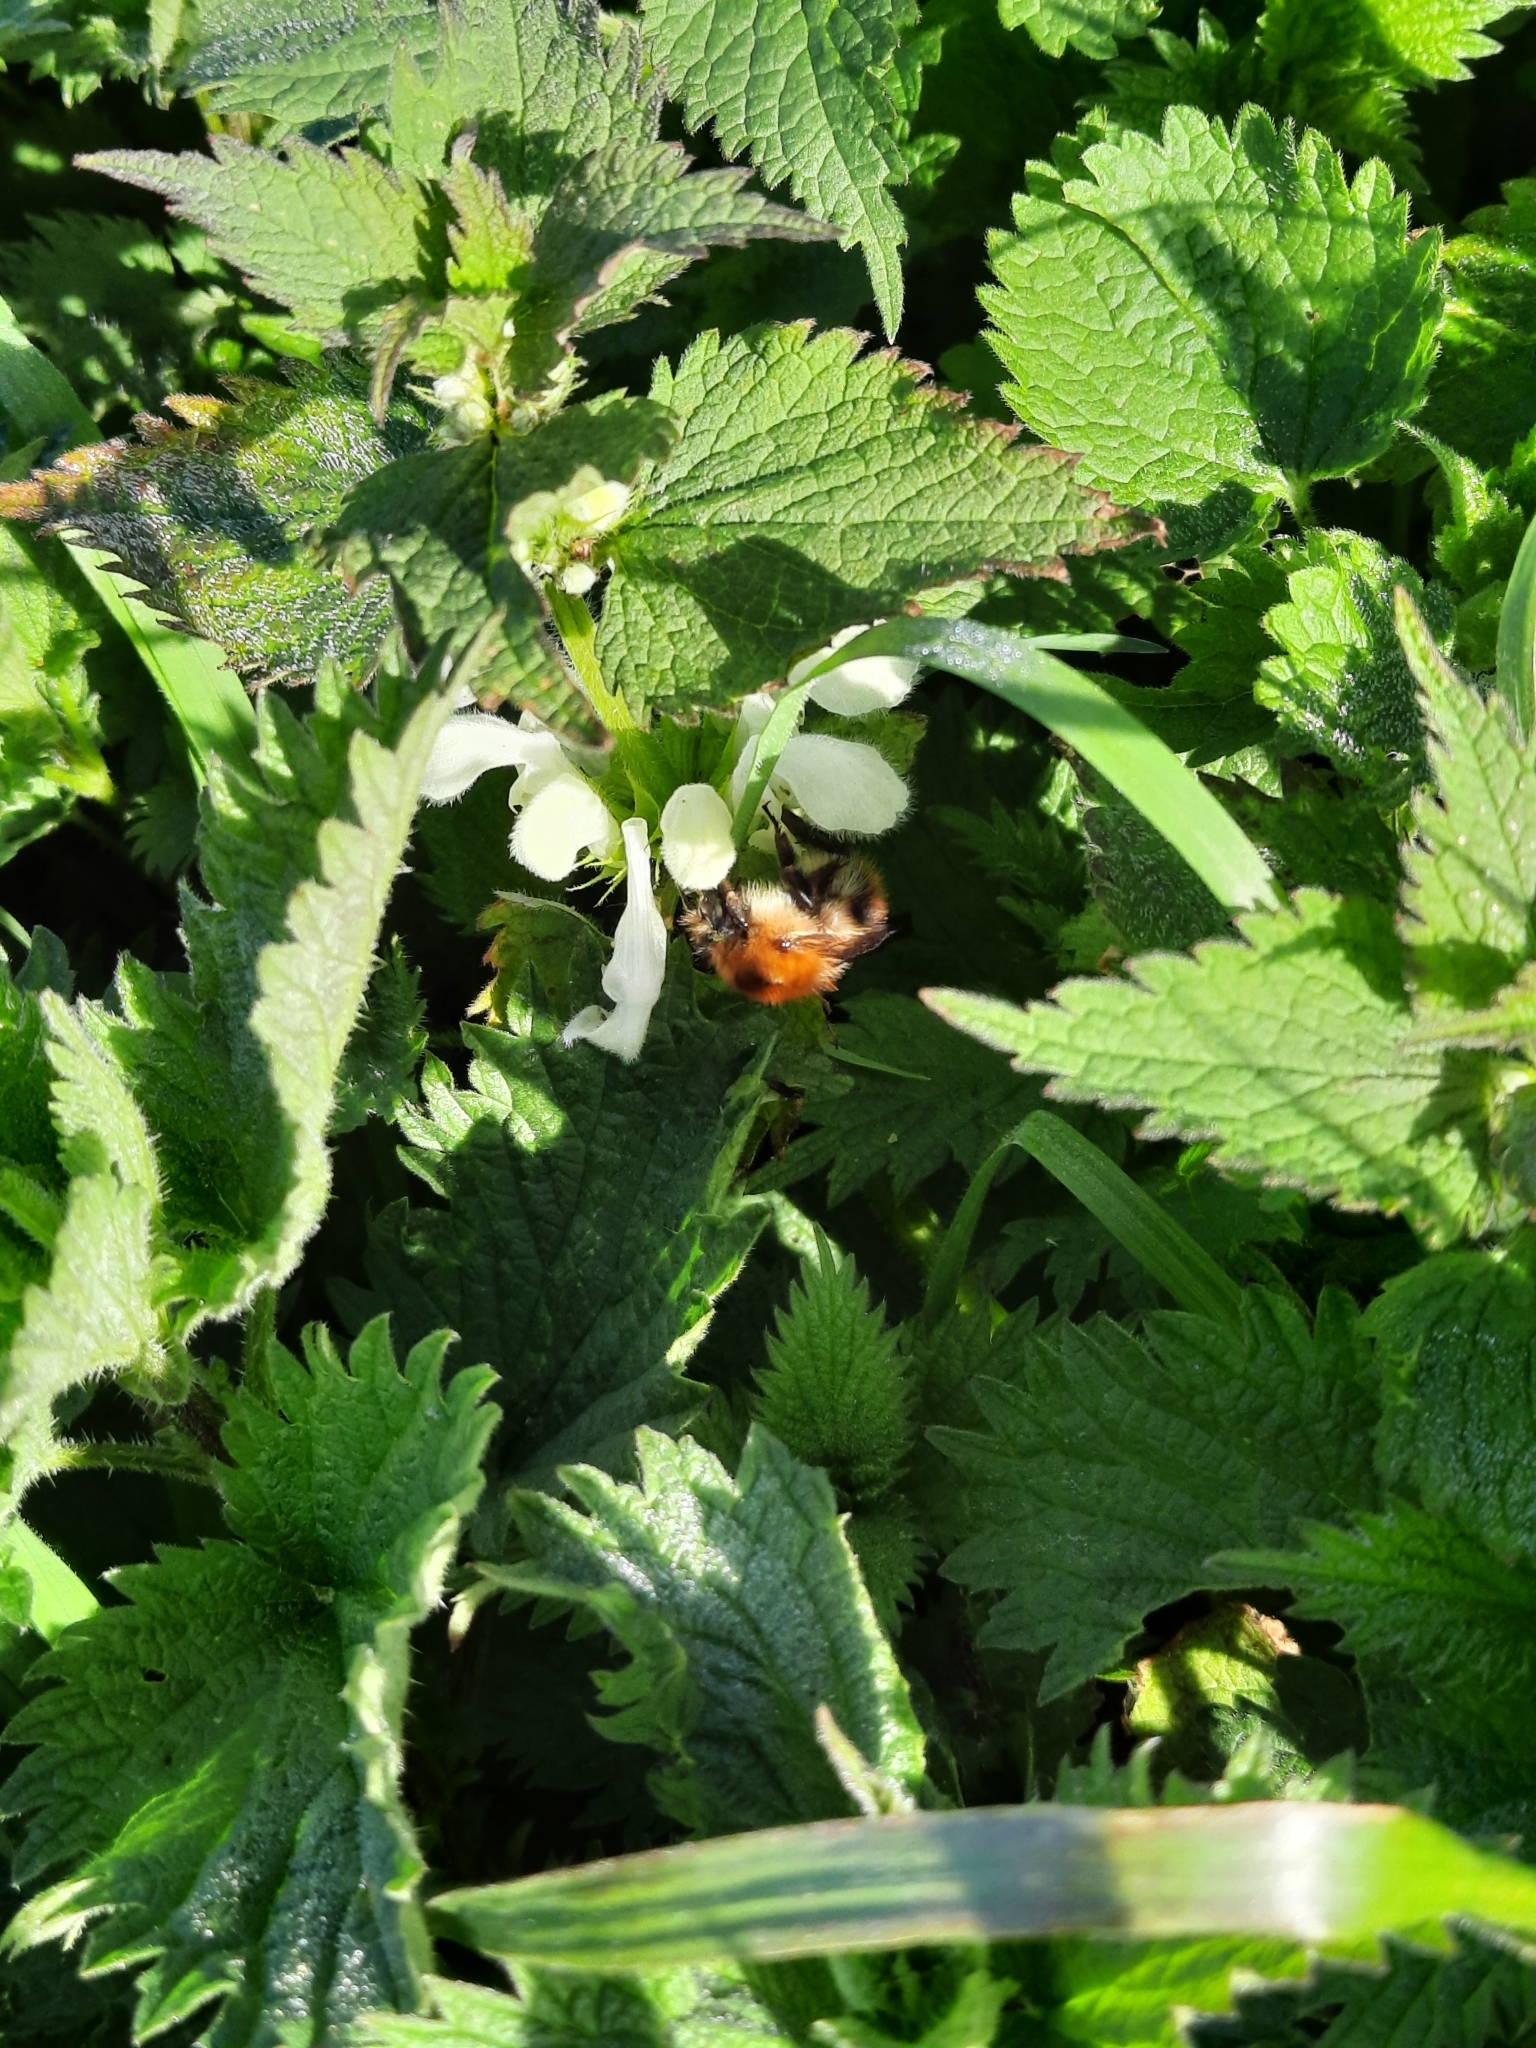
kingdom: Animalia
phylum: Arthropoda
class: Insecta
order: Hymenoptera
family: Apidae
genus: Bombus
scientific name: Bombus pascuorum
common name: Common carder bee
